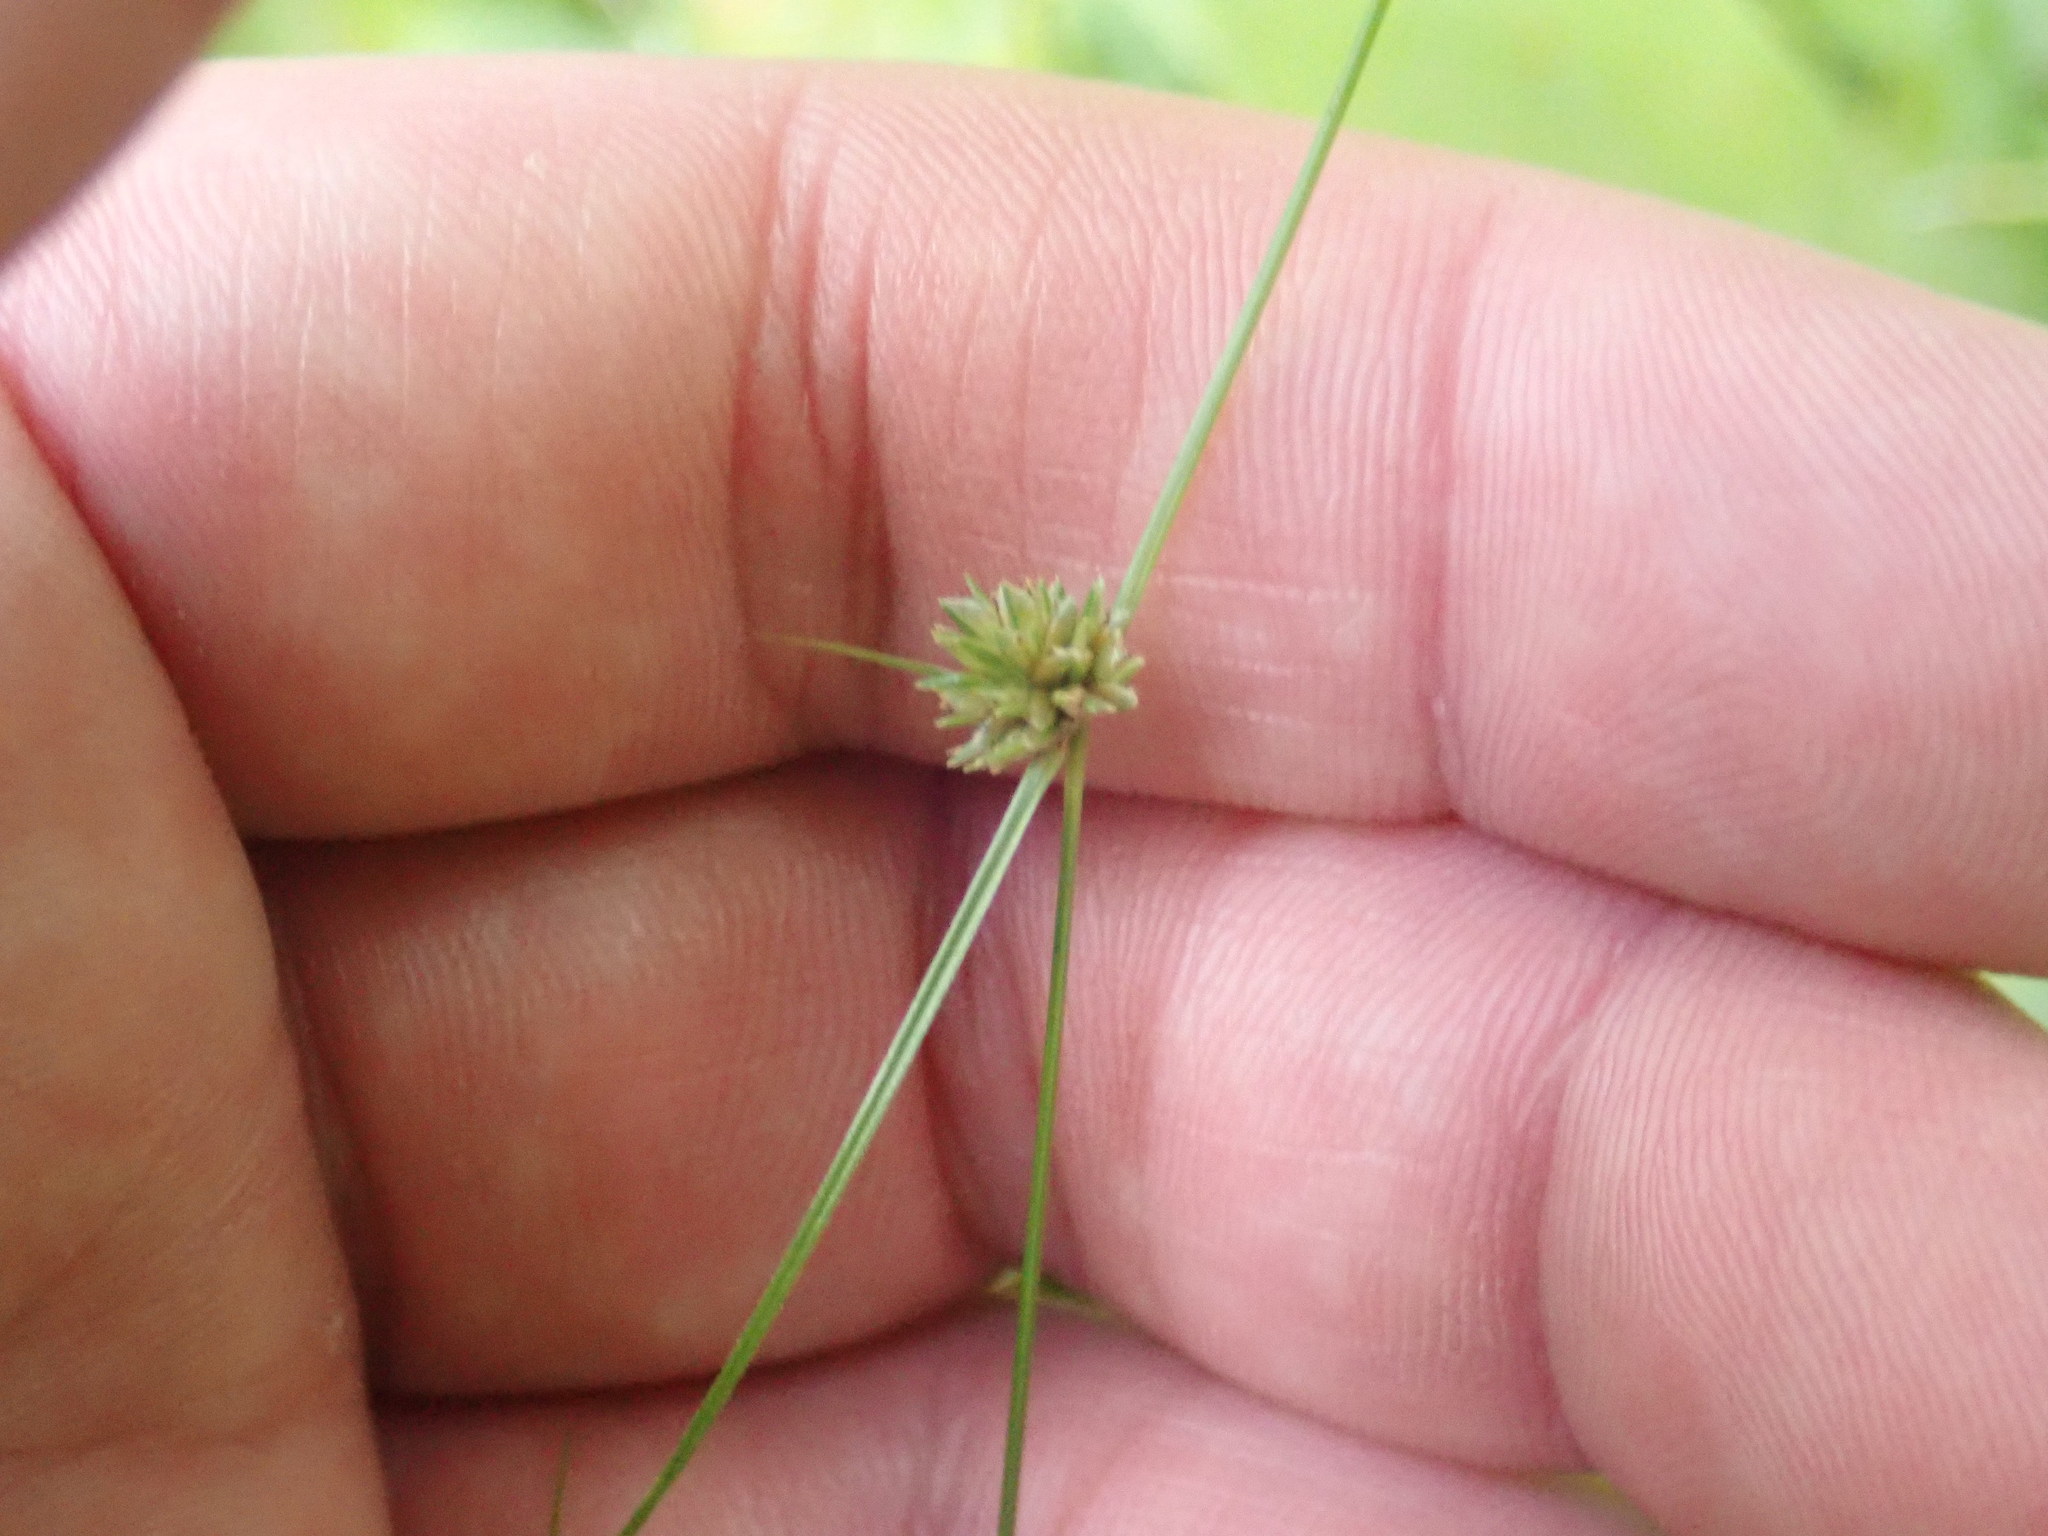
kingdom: Plantae
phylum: Tracheophyta
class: Liliopsida
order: Poales
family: Cyperaceae
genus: Cyperus
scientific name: Cyperus lupulinus
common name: Great plains flatsedge
